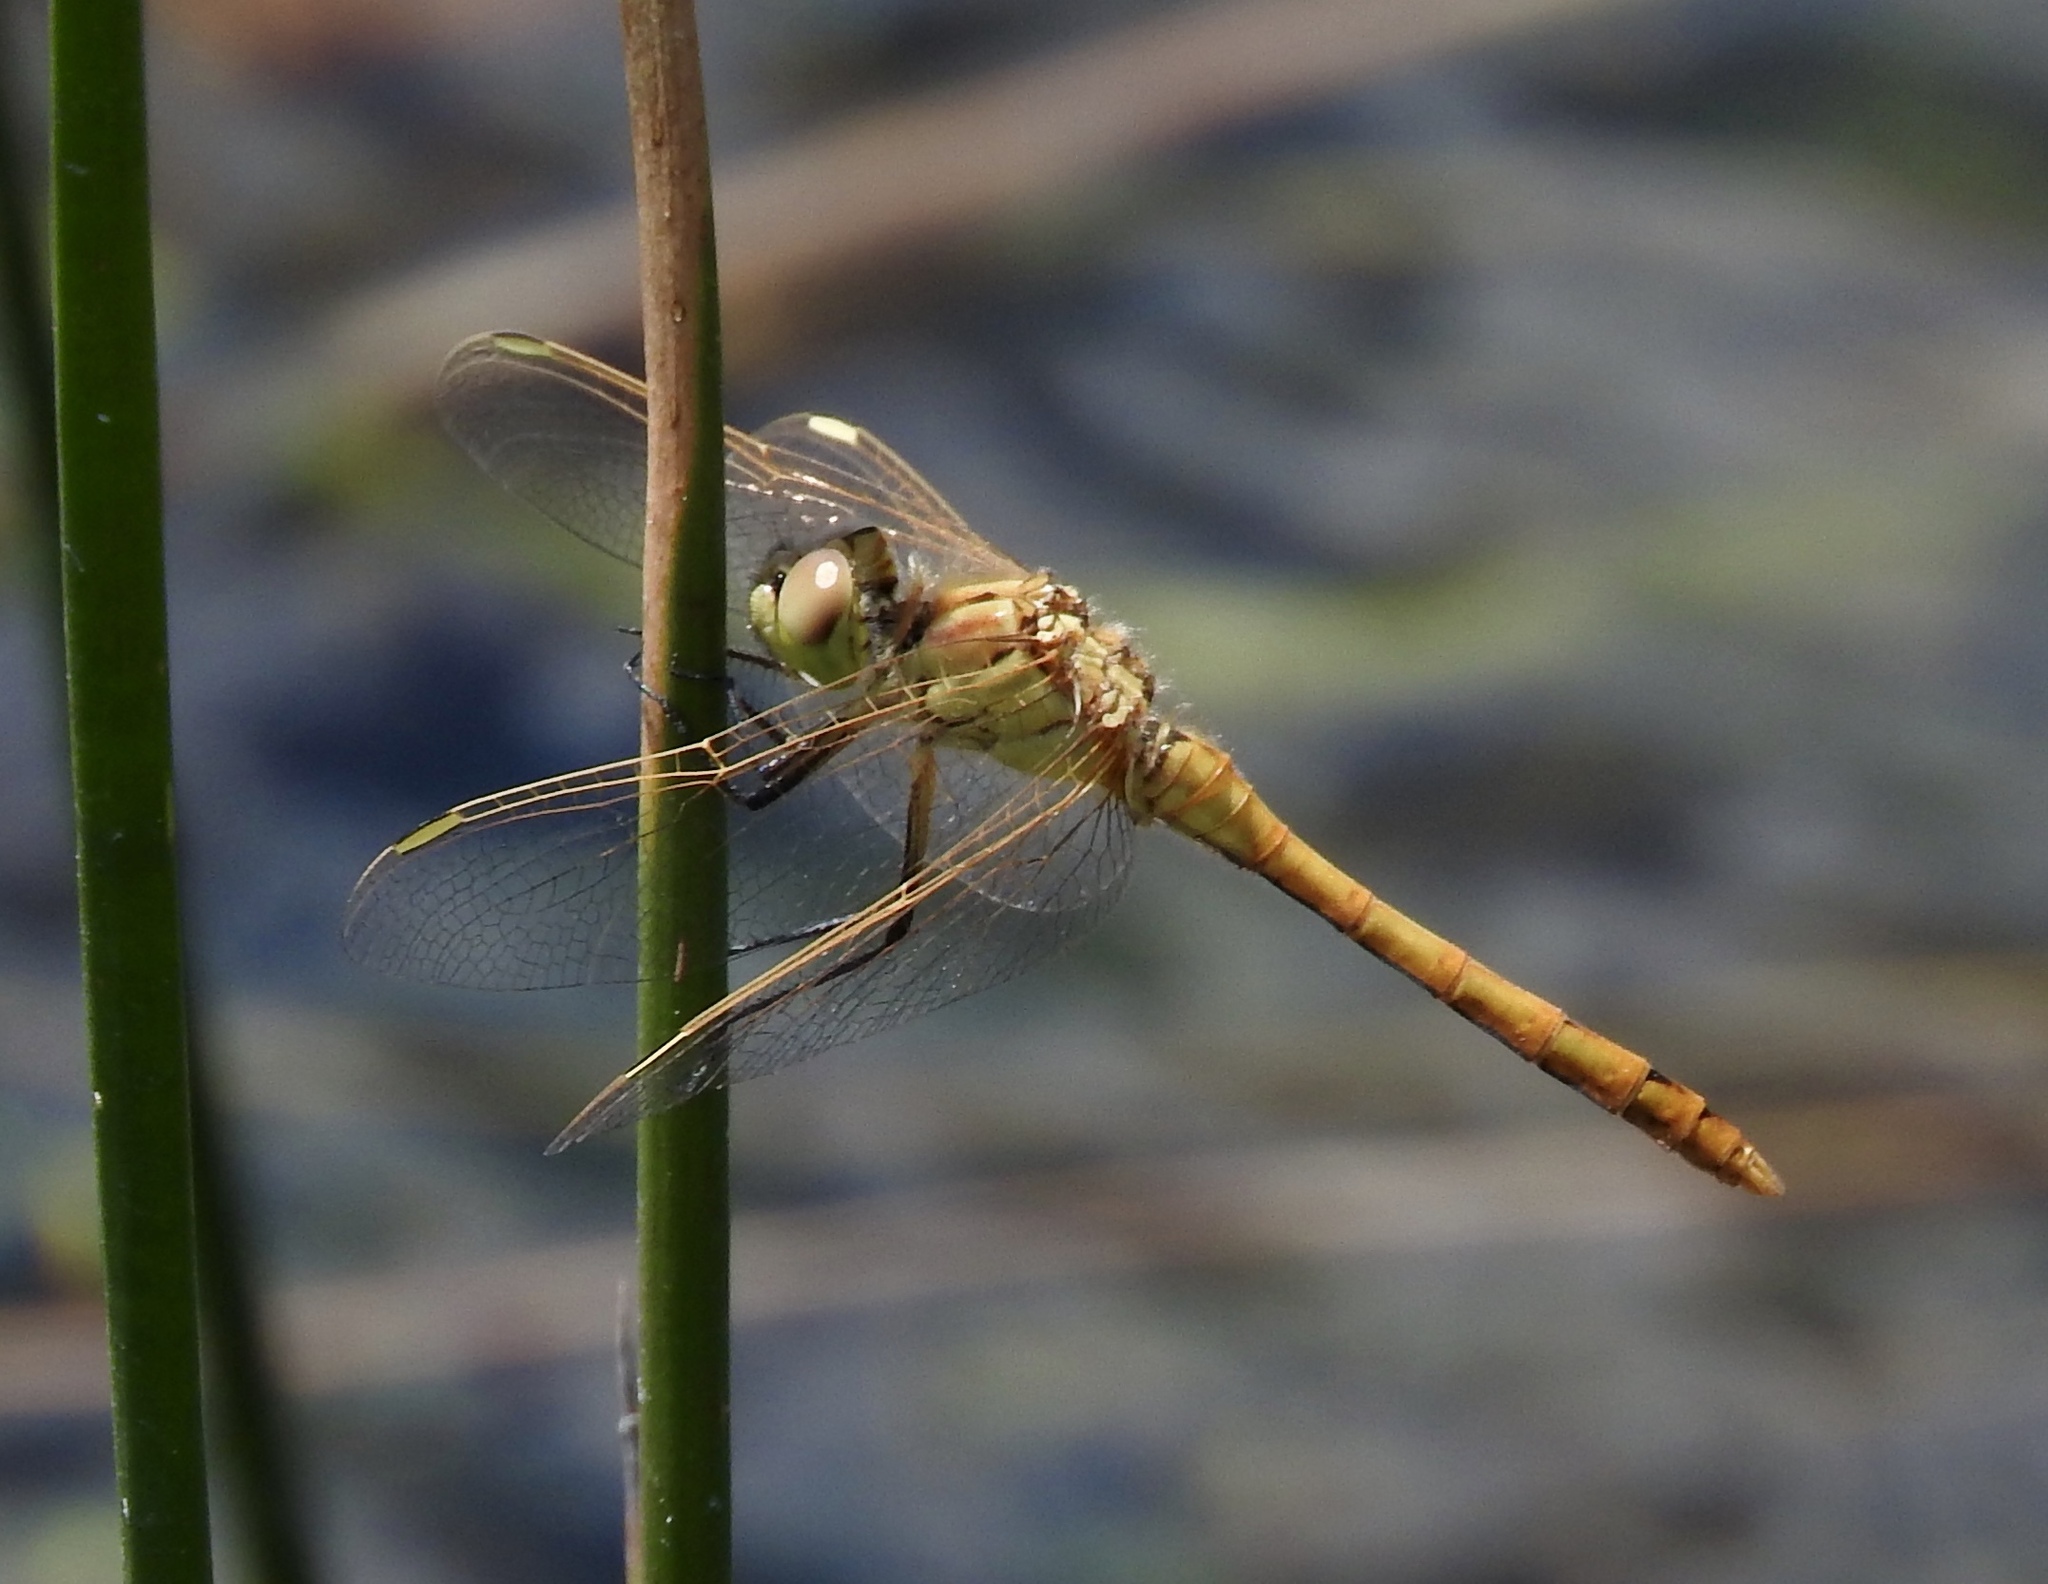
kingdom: Animalia
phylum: Arthropoda
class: Insecta
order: Odonata
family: Libellulidae
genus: Sympetrum
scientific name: Sympetrum costiferum
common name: Saffron-winged meadowhawk
